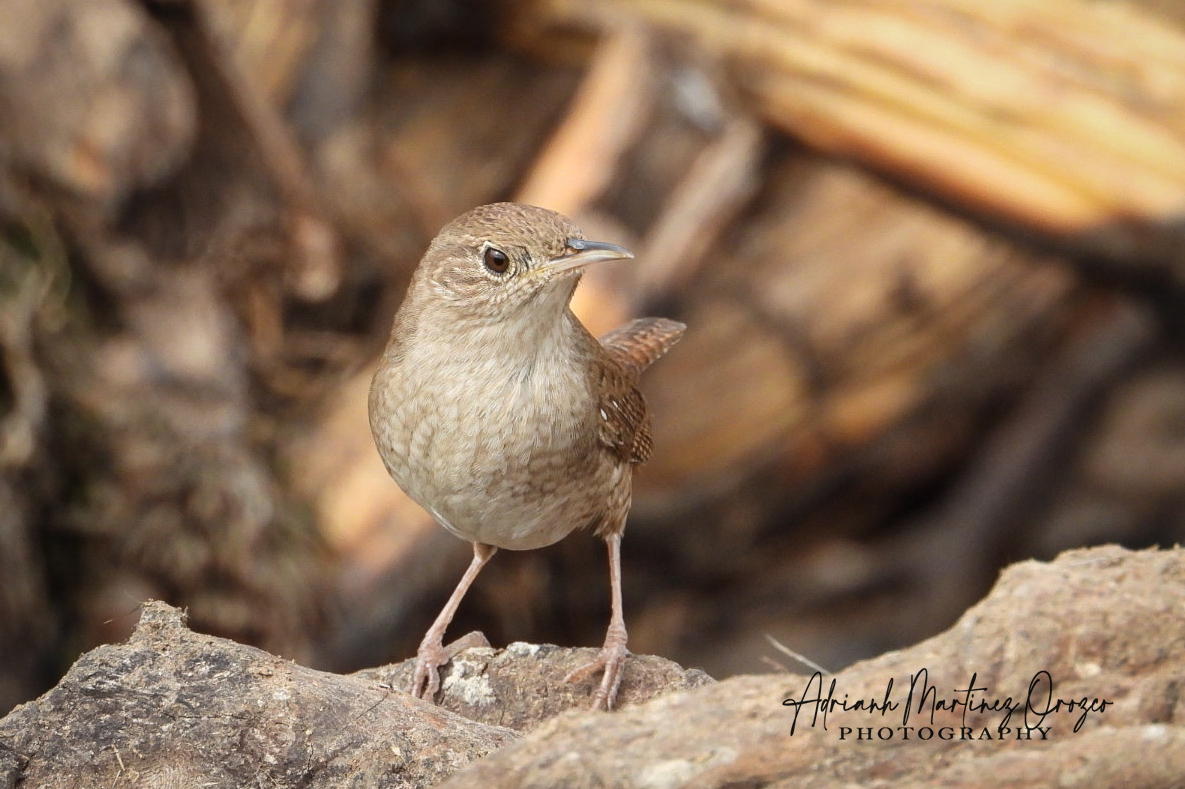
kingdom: Animalia
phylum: Chordata
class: Aves
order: Passeriformes
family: Troglodytidae
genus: Troglodytes
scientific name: Troglodytes aedon
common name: House wren
